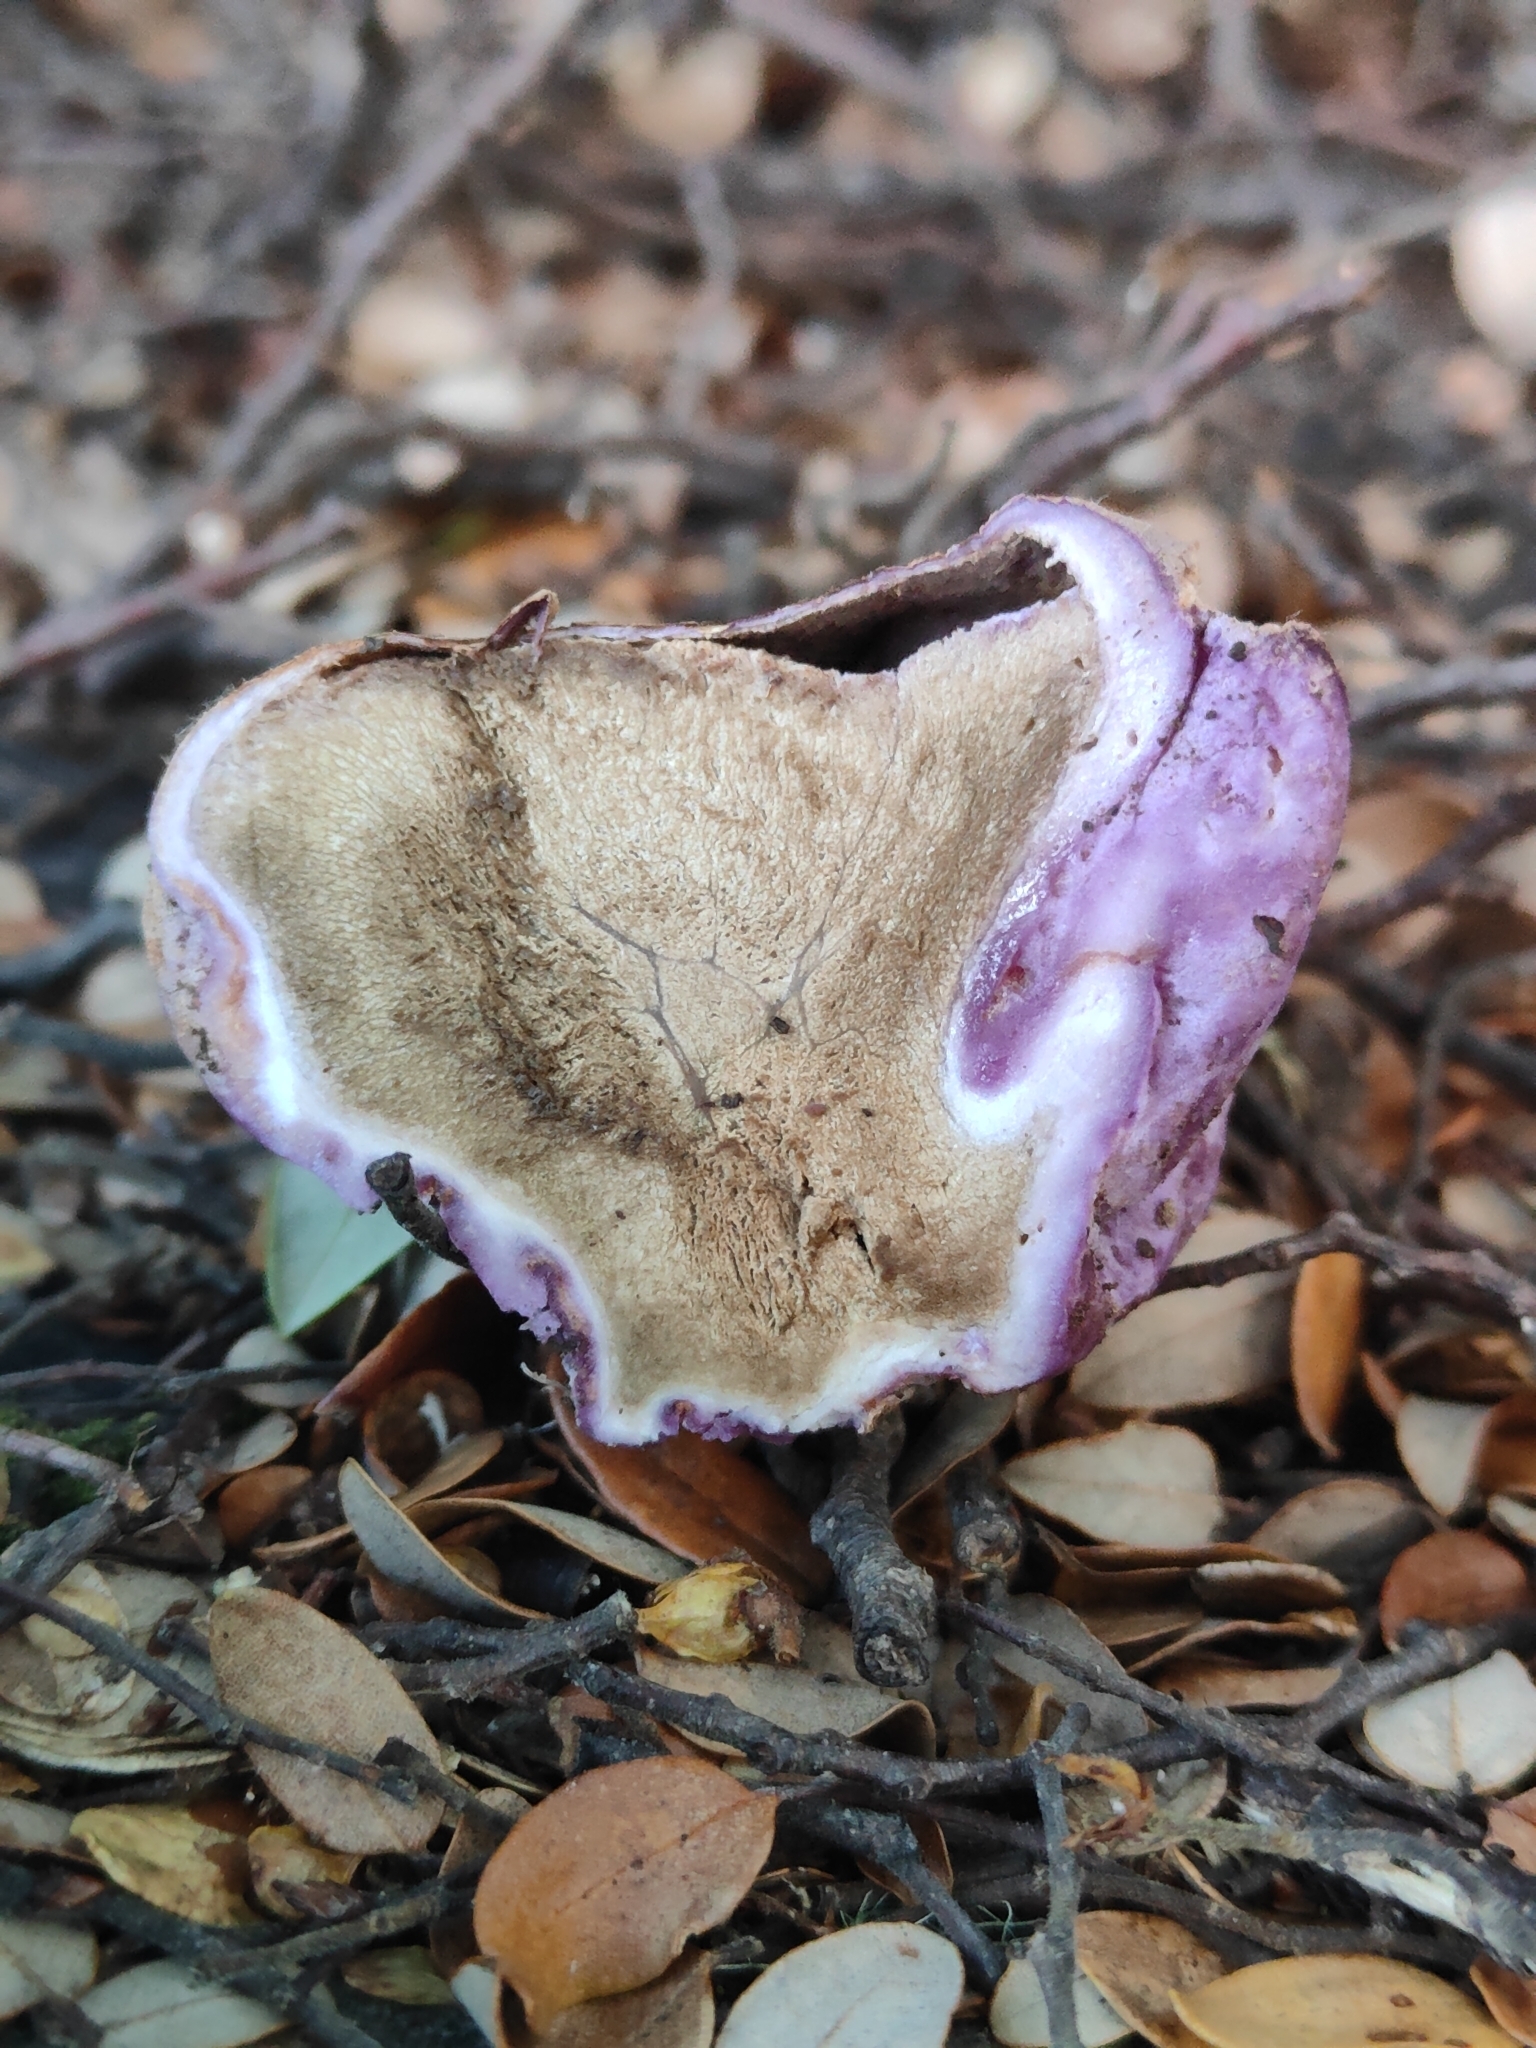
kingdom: Fungi
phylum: Basidiomycota
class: Agaricomycetes
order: Hysterangiales
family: Gallaceaceae
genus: Gallacea
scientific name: Gallacea scleroderma
